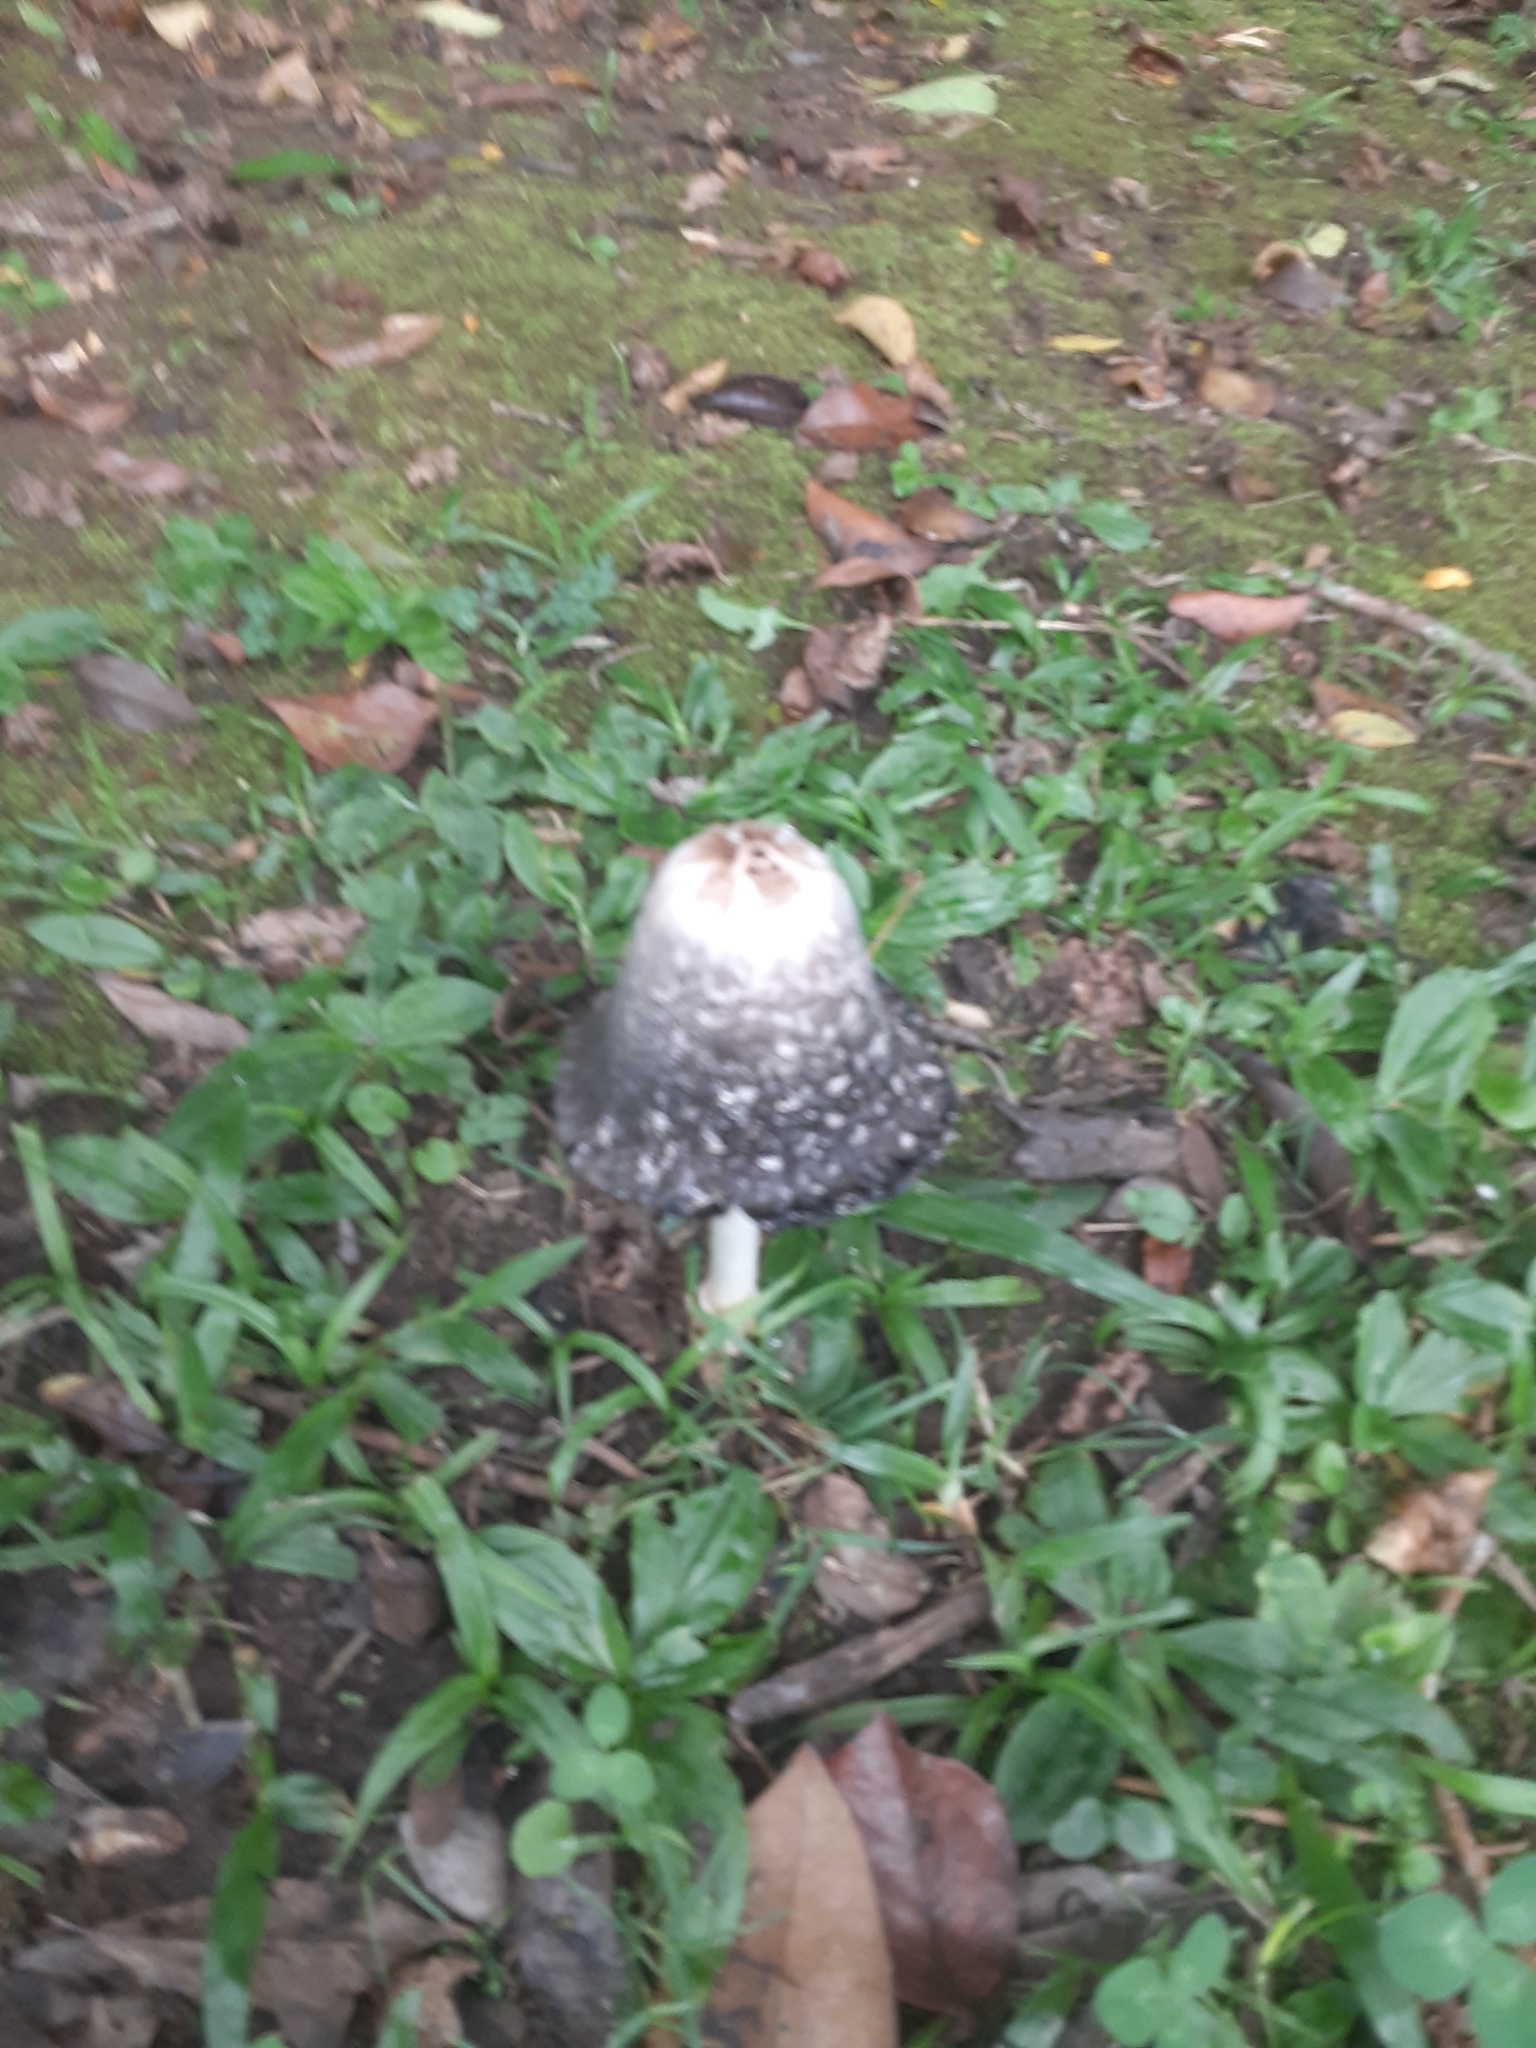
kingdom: Fungi
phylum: Basidiomycota
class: Agaricomycetes
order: Agaricales
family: Agaricaceae
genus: Coprinus
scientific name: Coprinus comatus
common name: Lawyer's wig
